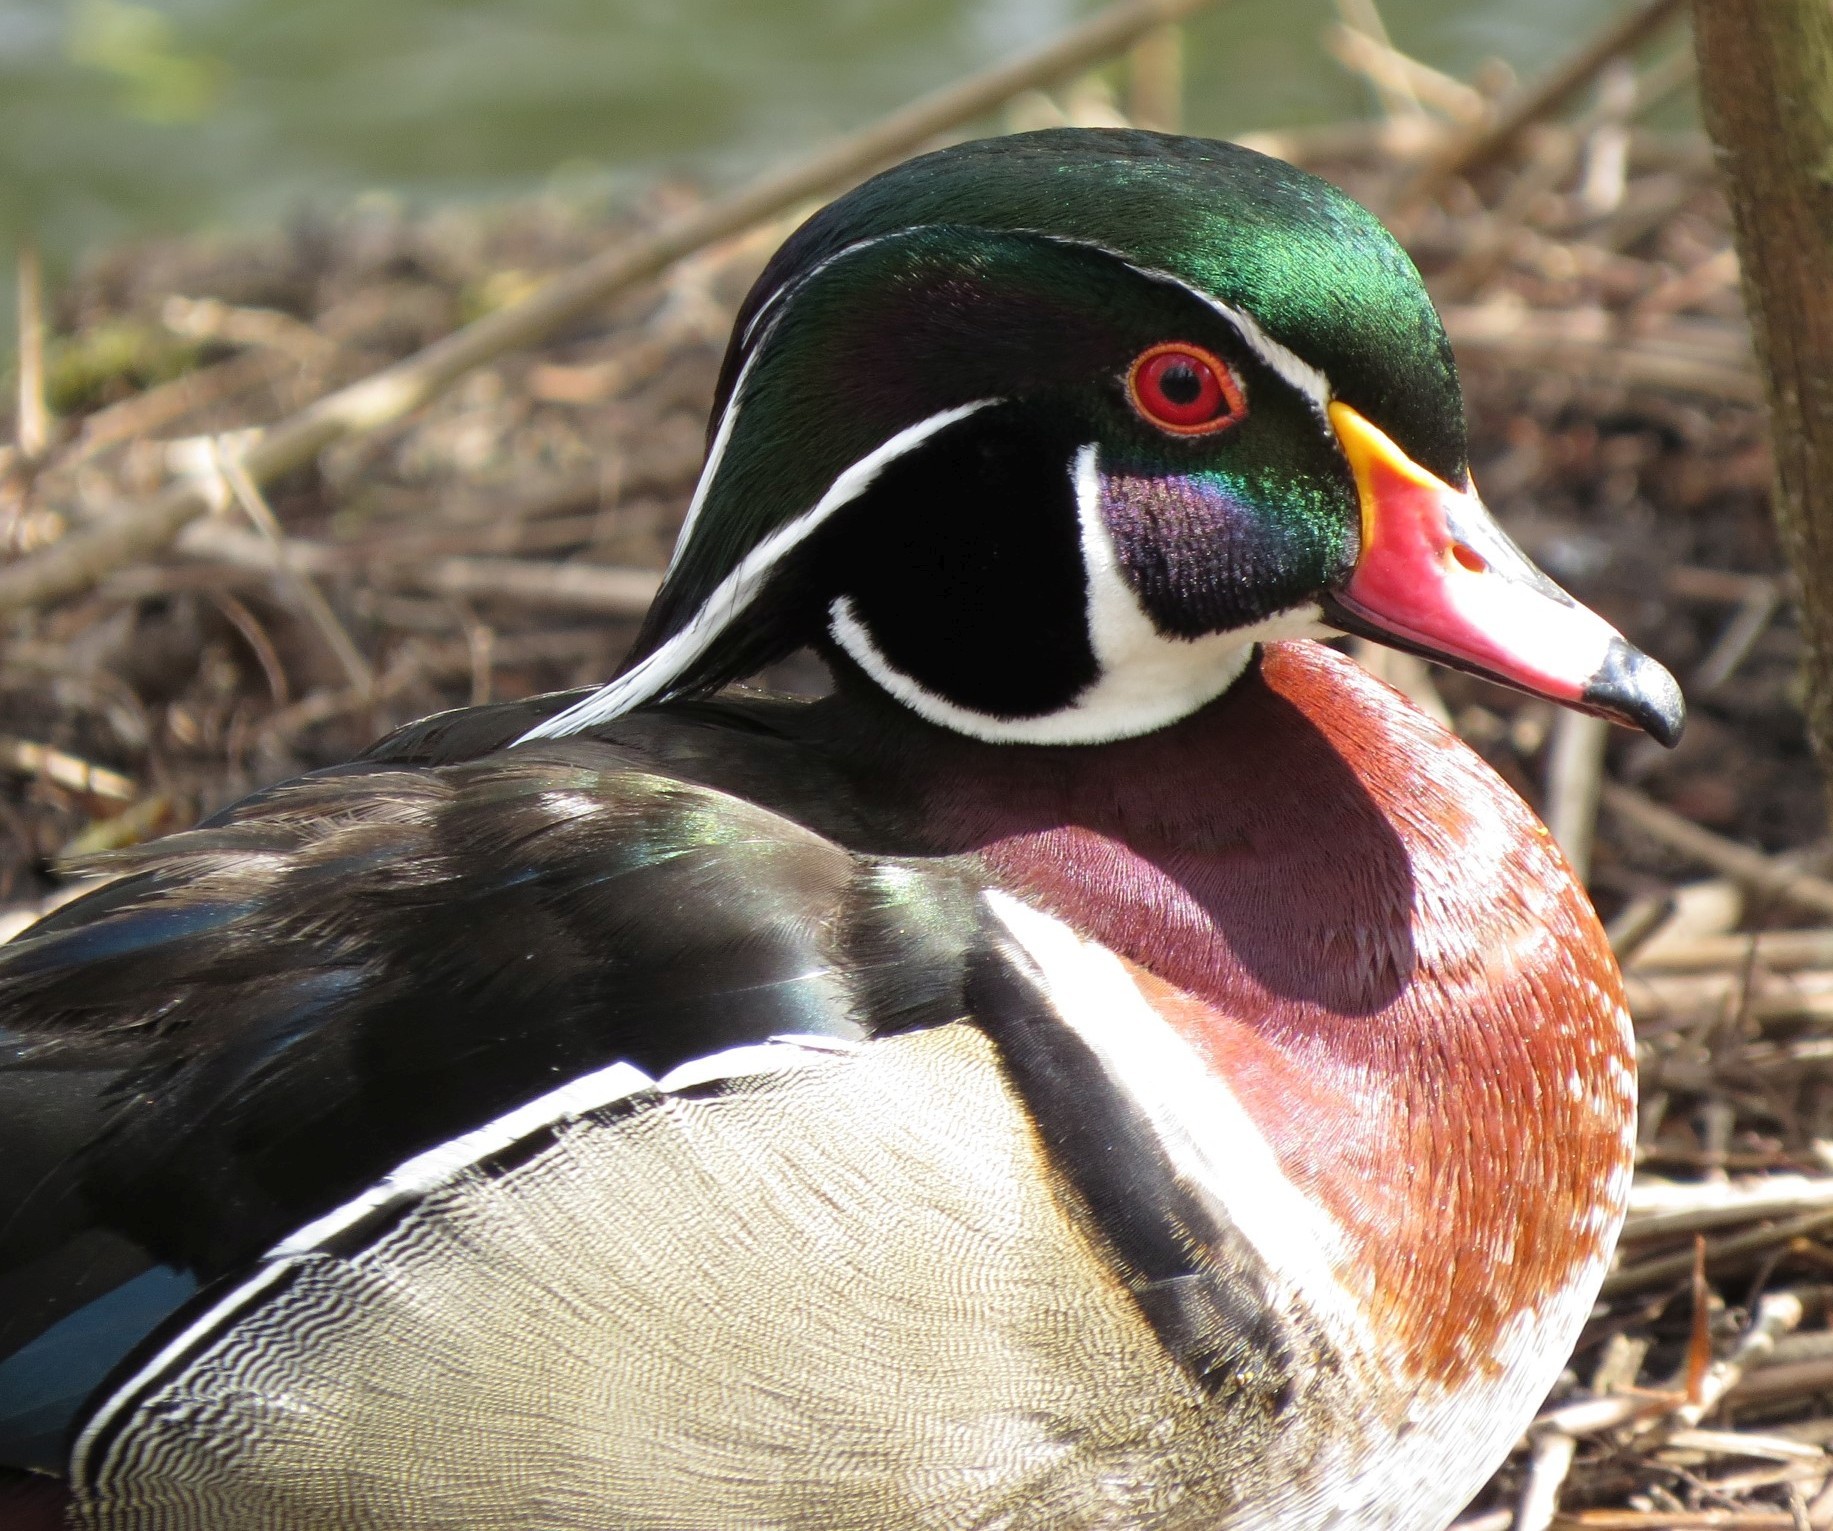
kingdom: Animalia
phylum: Chordata
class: Aves
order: Anseriformes
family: Anatidae
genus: Aix
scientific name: Aix sponsa
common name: Wood duck
